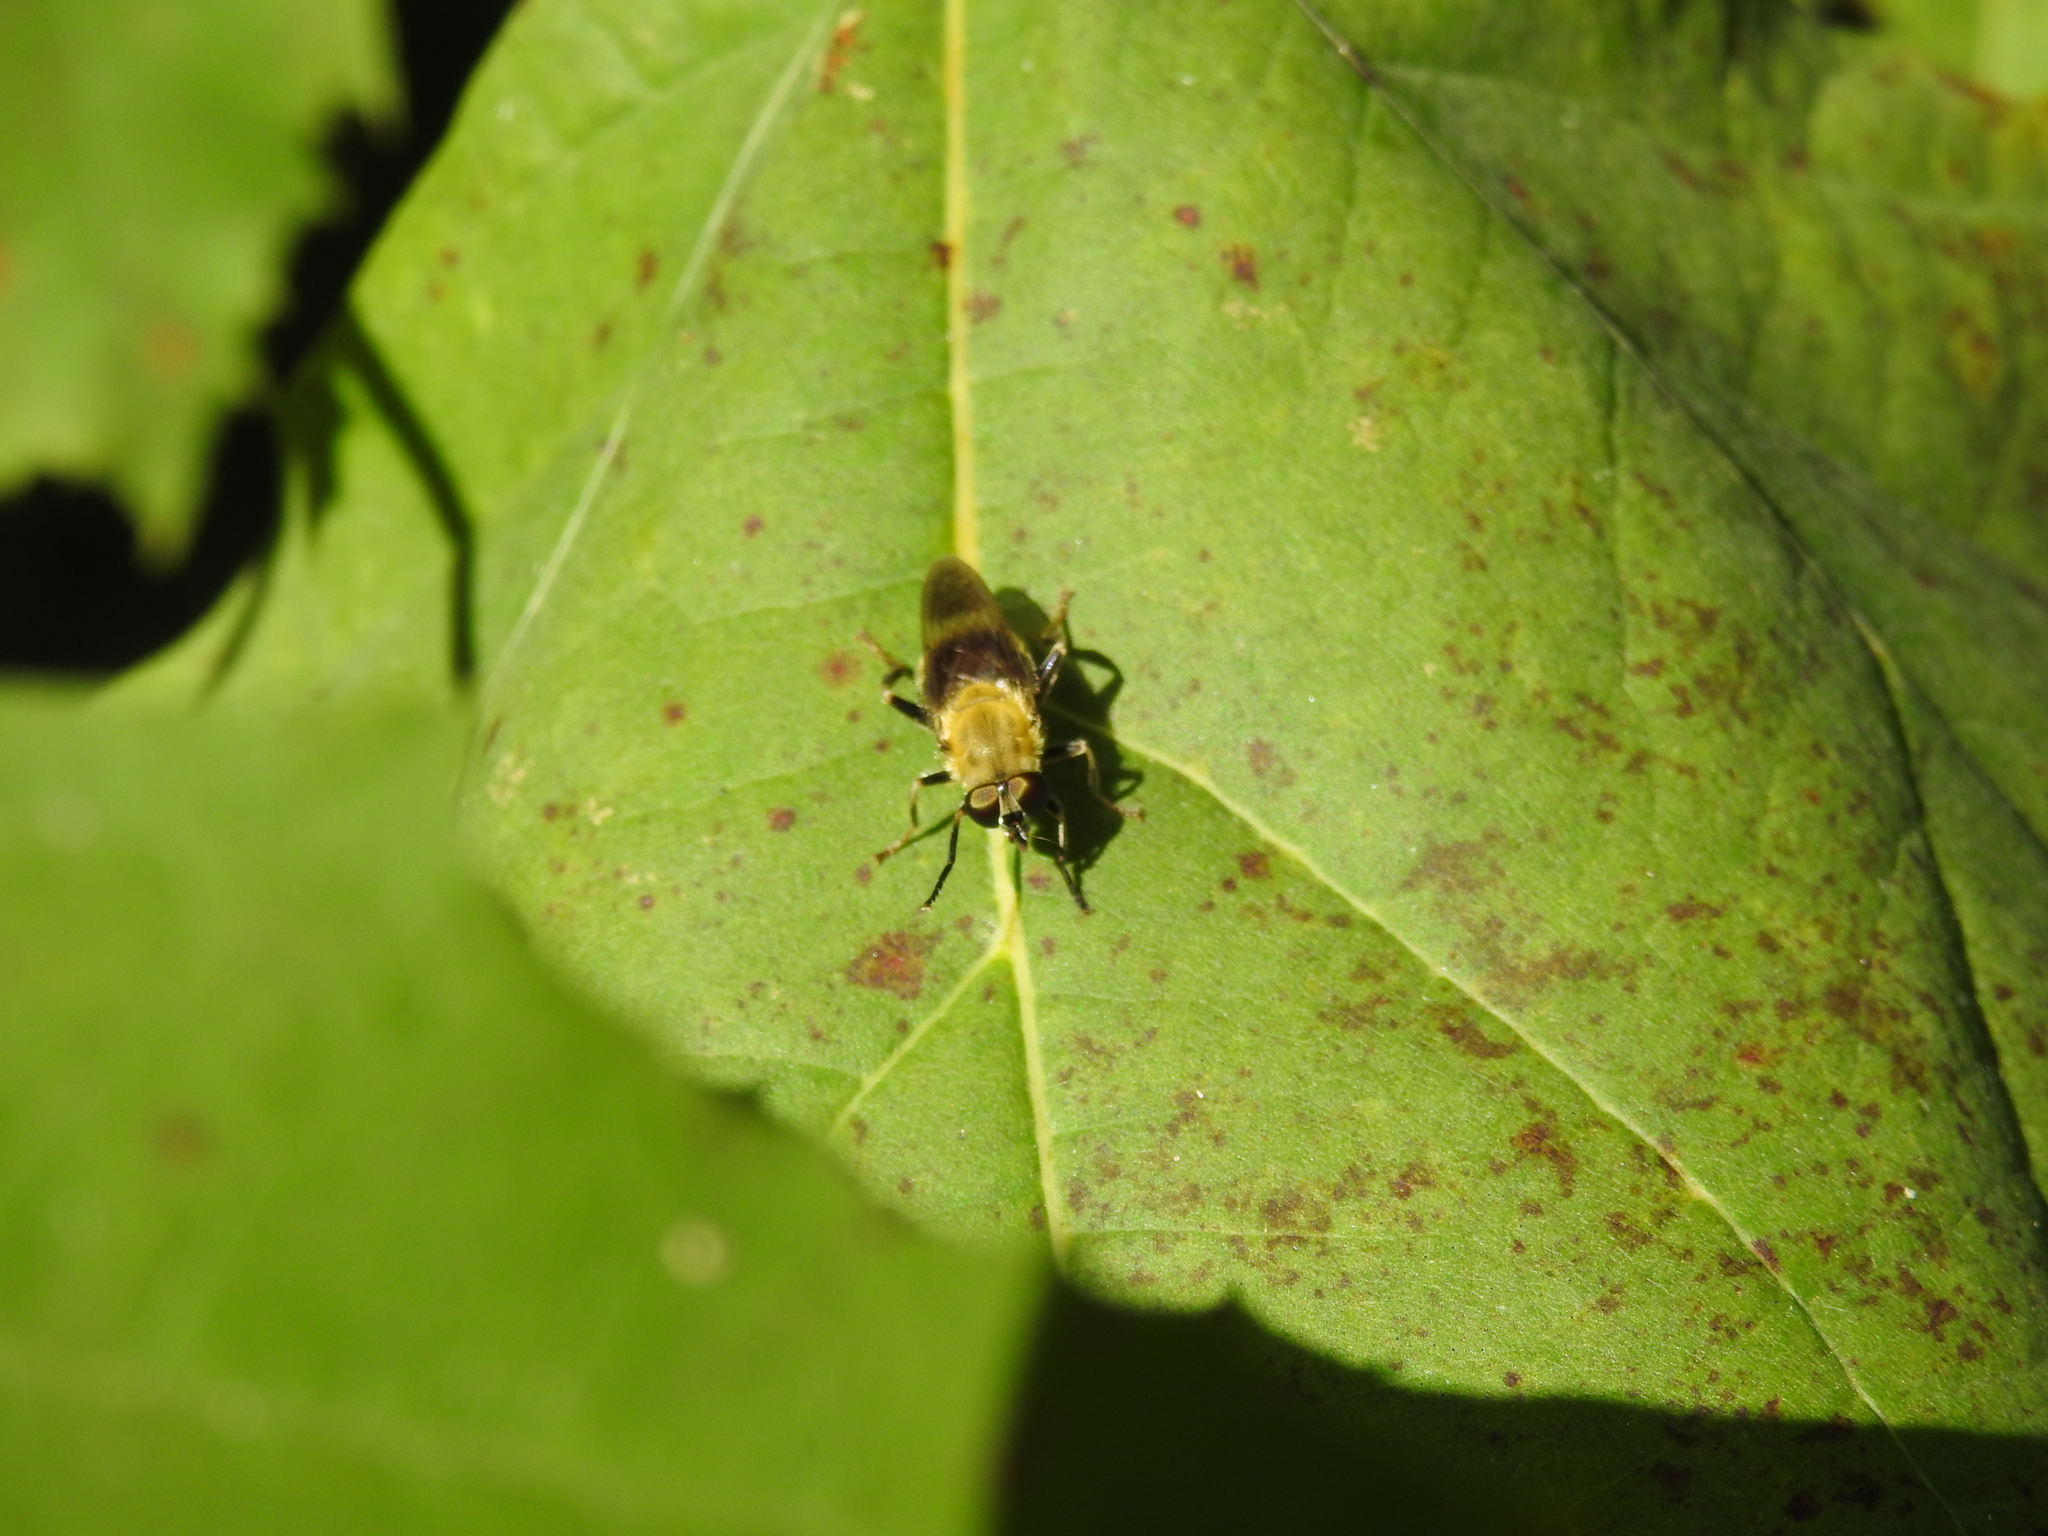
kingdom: Animalia
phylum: Arthropoda
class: Insecta
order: Diptera
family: Syrphidae
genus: Pterallastes
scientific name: Pterallastes thoracicus
